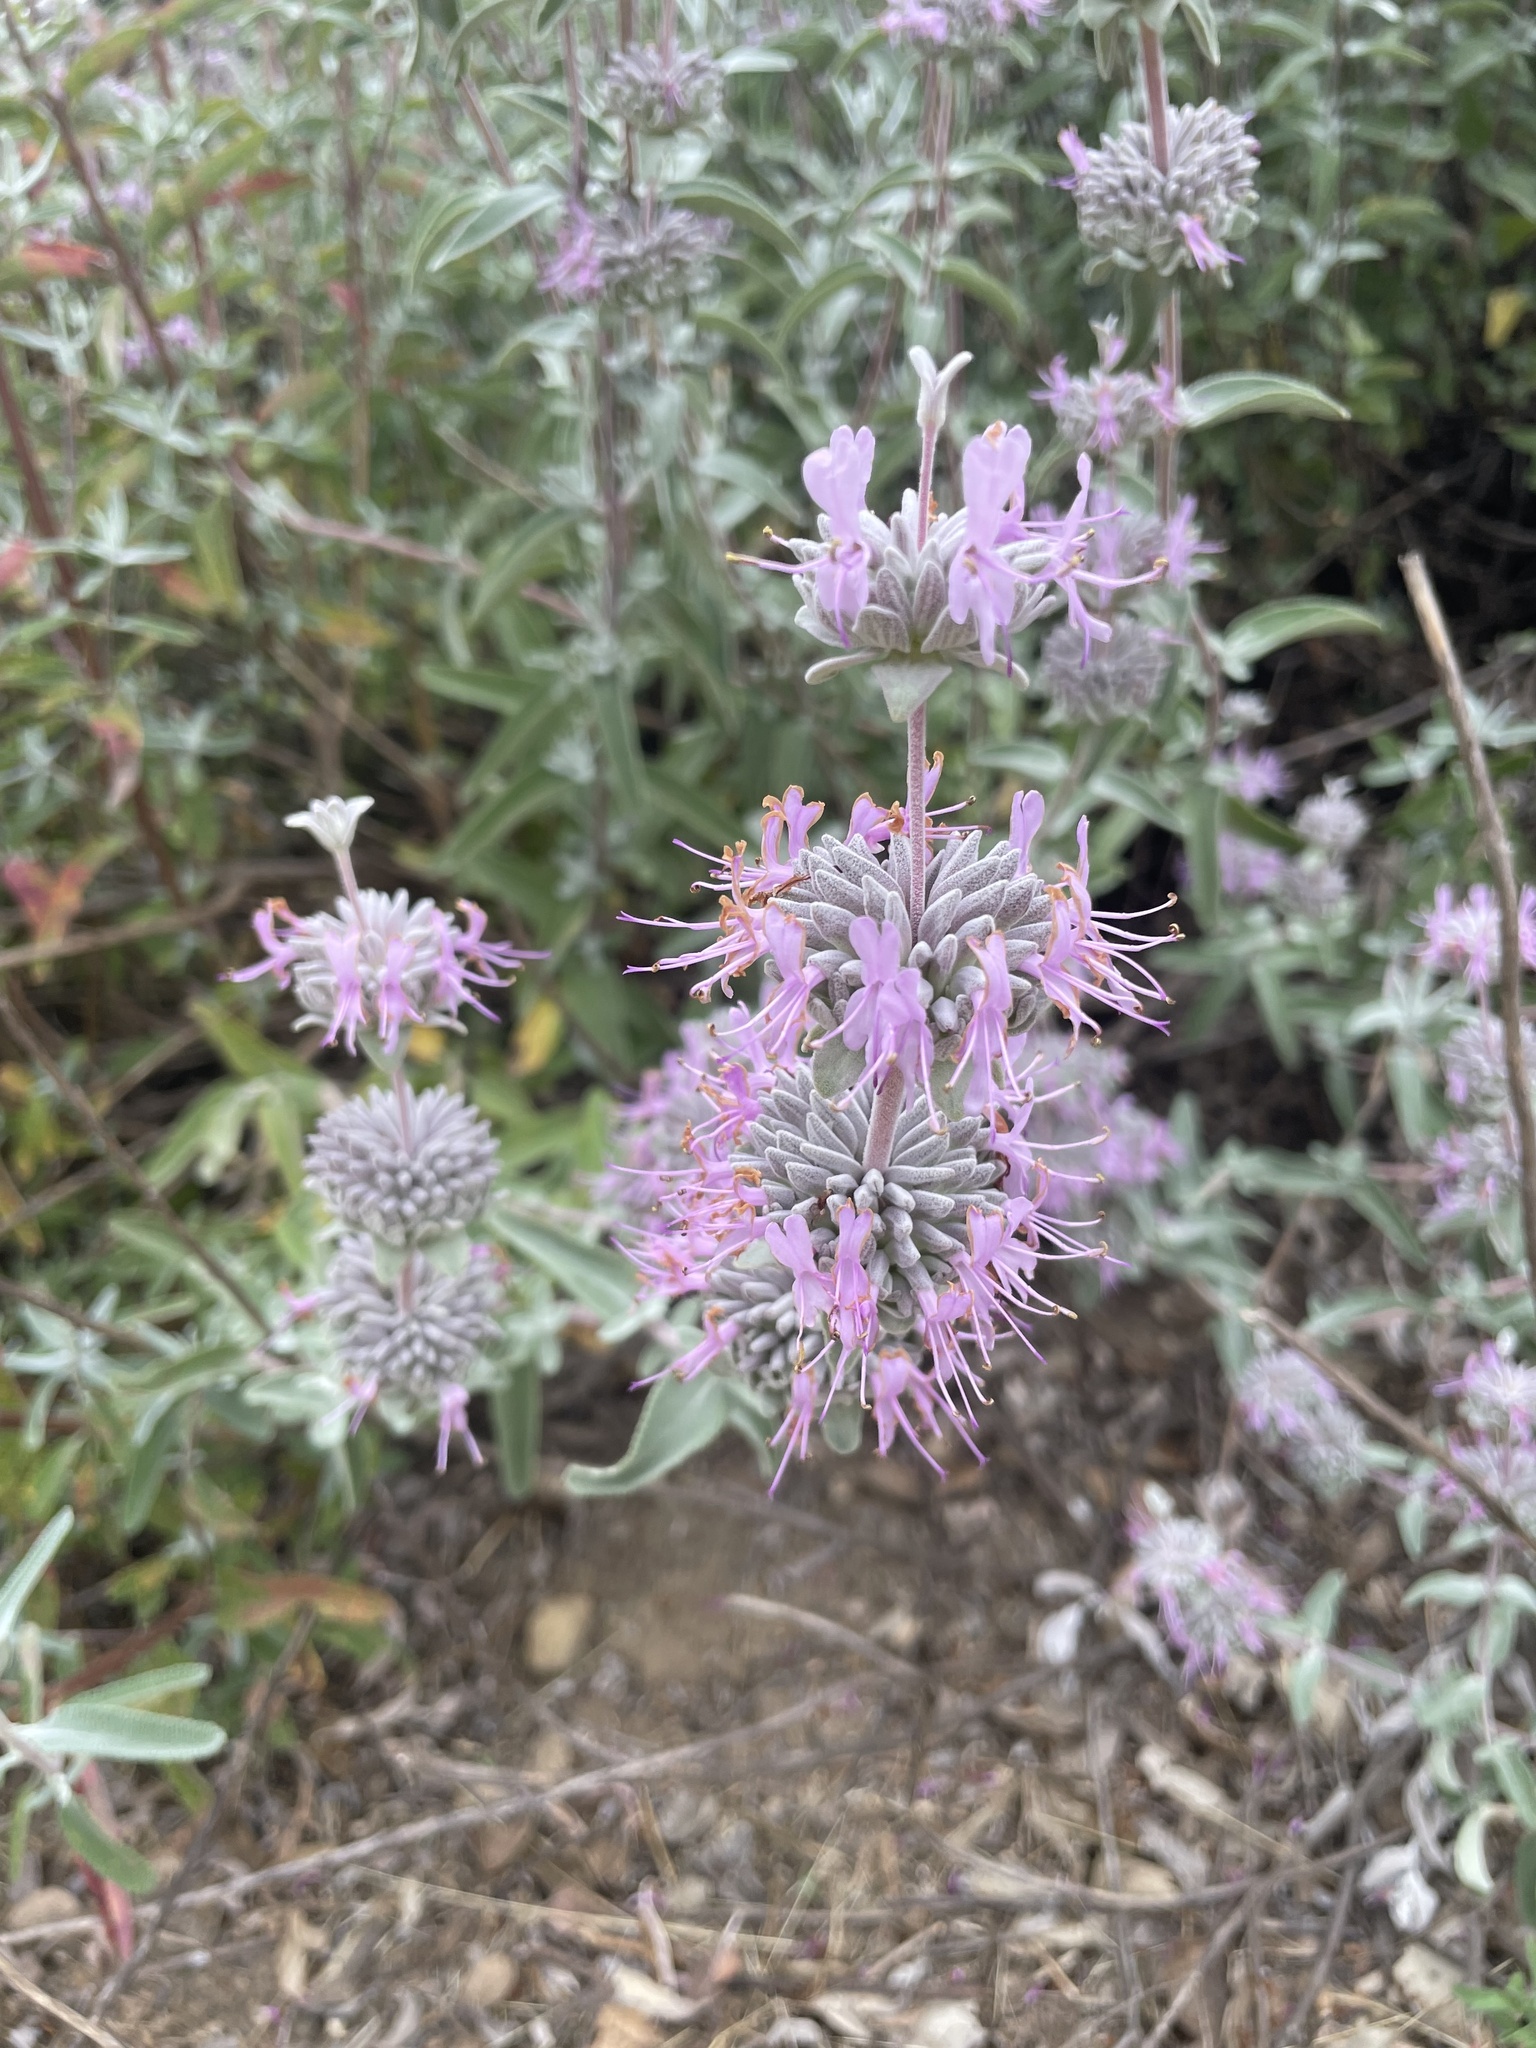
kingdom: Plantae
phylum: Tracheophyta
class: Magnoliopsida
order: Lamiales
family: Lamiaceae
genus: Salvia
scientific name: Salvia leucophylla
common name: Purple sage
